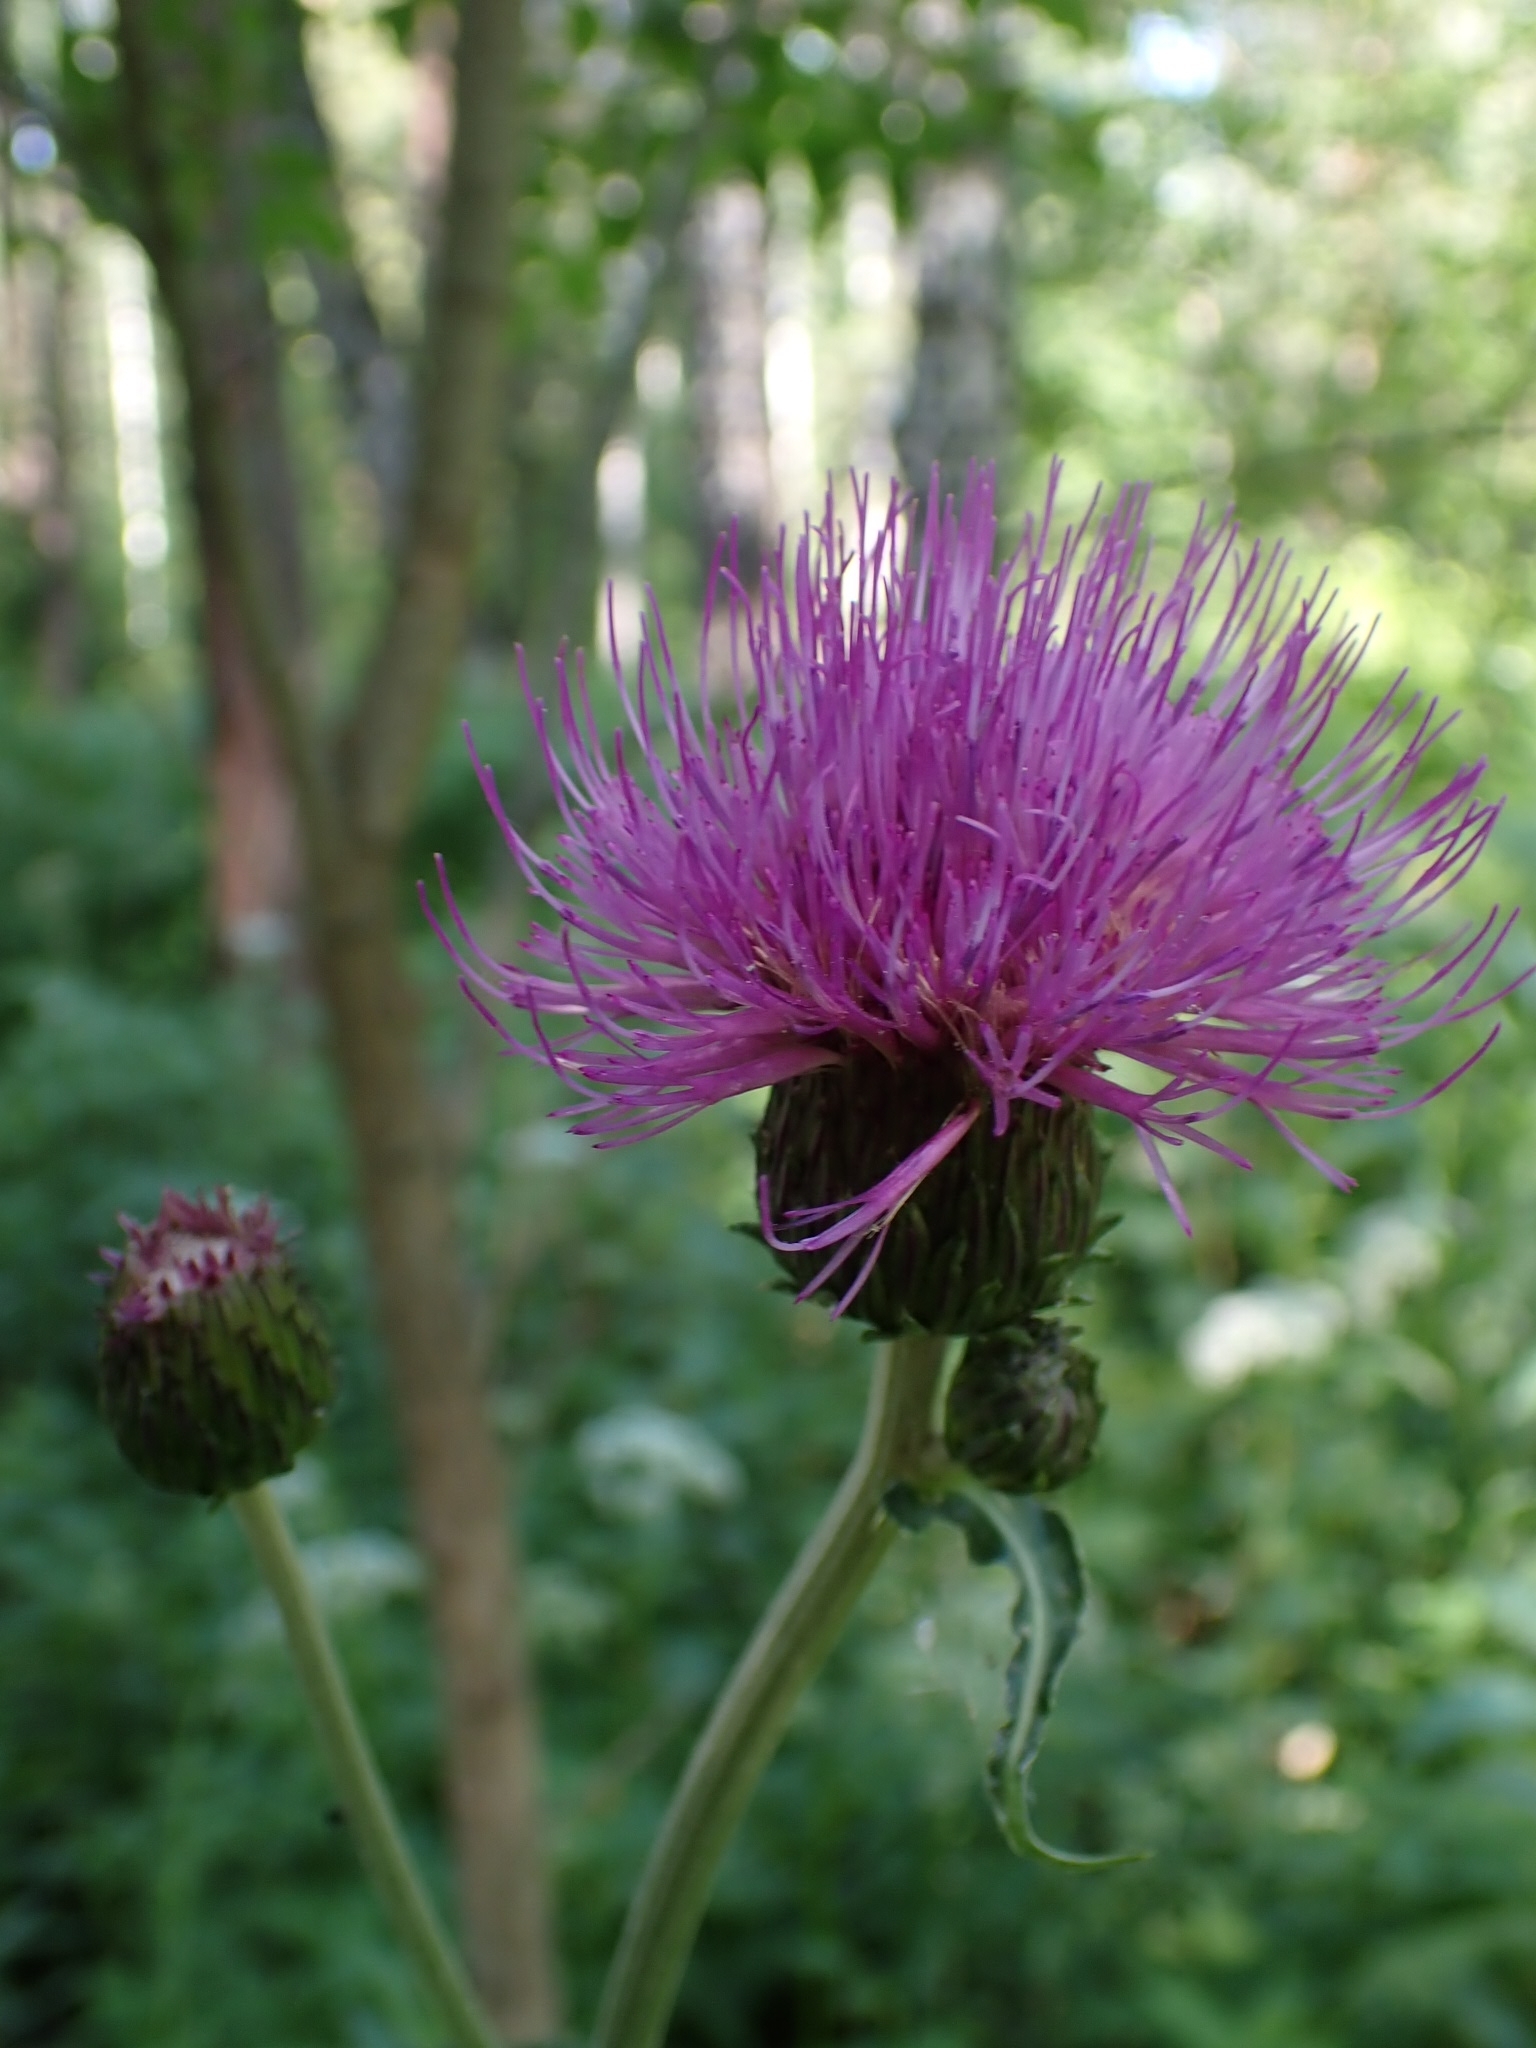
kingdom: Plantae
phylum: Tracheophyta
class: Magnoliopsida
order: Asterales
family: Asteraceae
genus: Cirsium
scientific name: Cirsium heterophyllum
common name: Melancholy thistle
